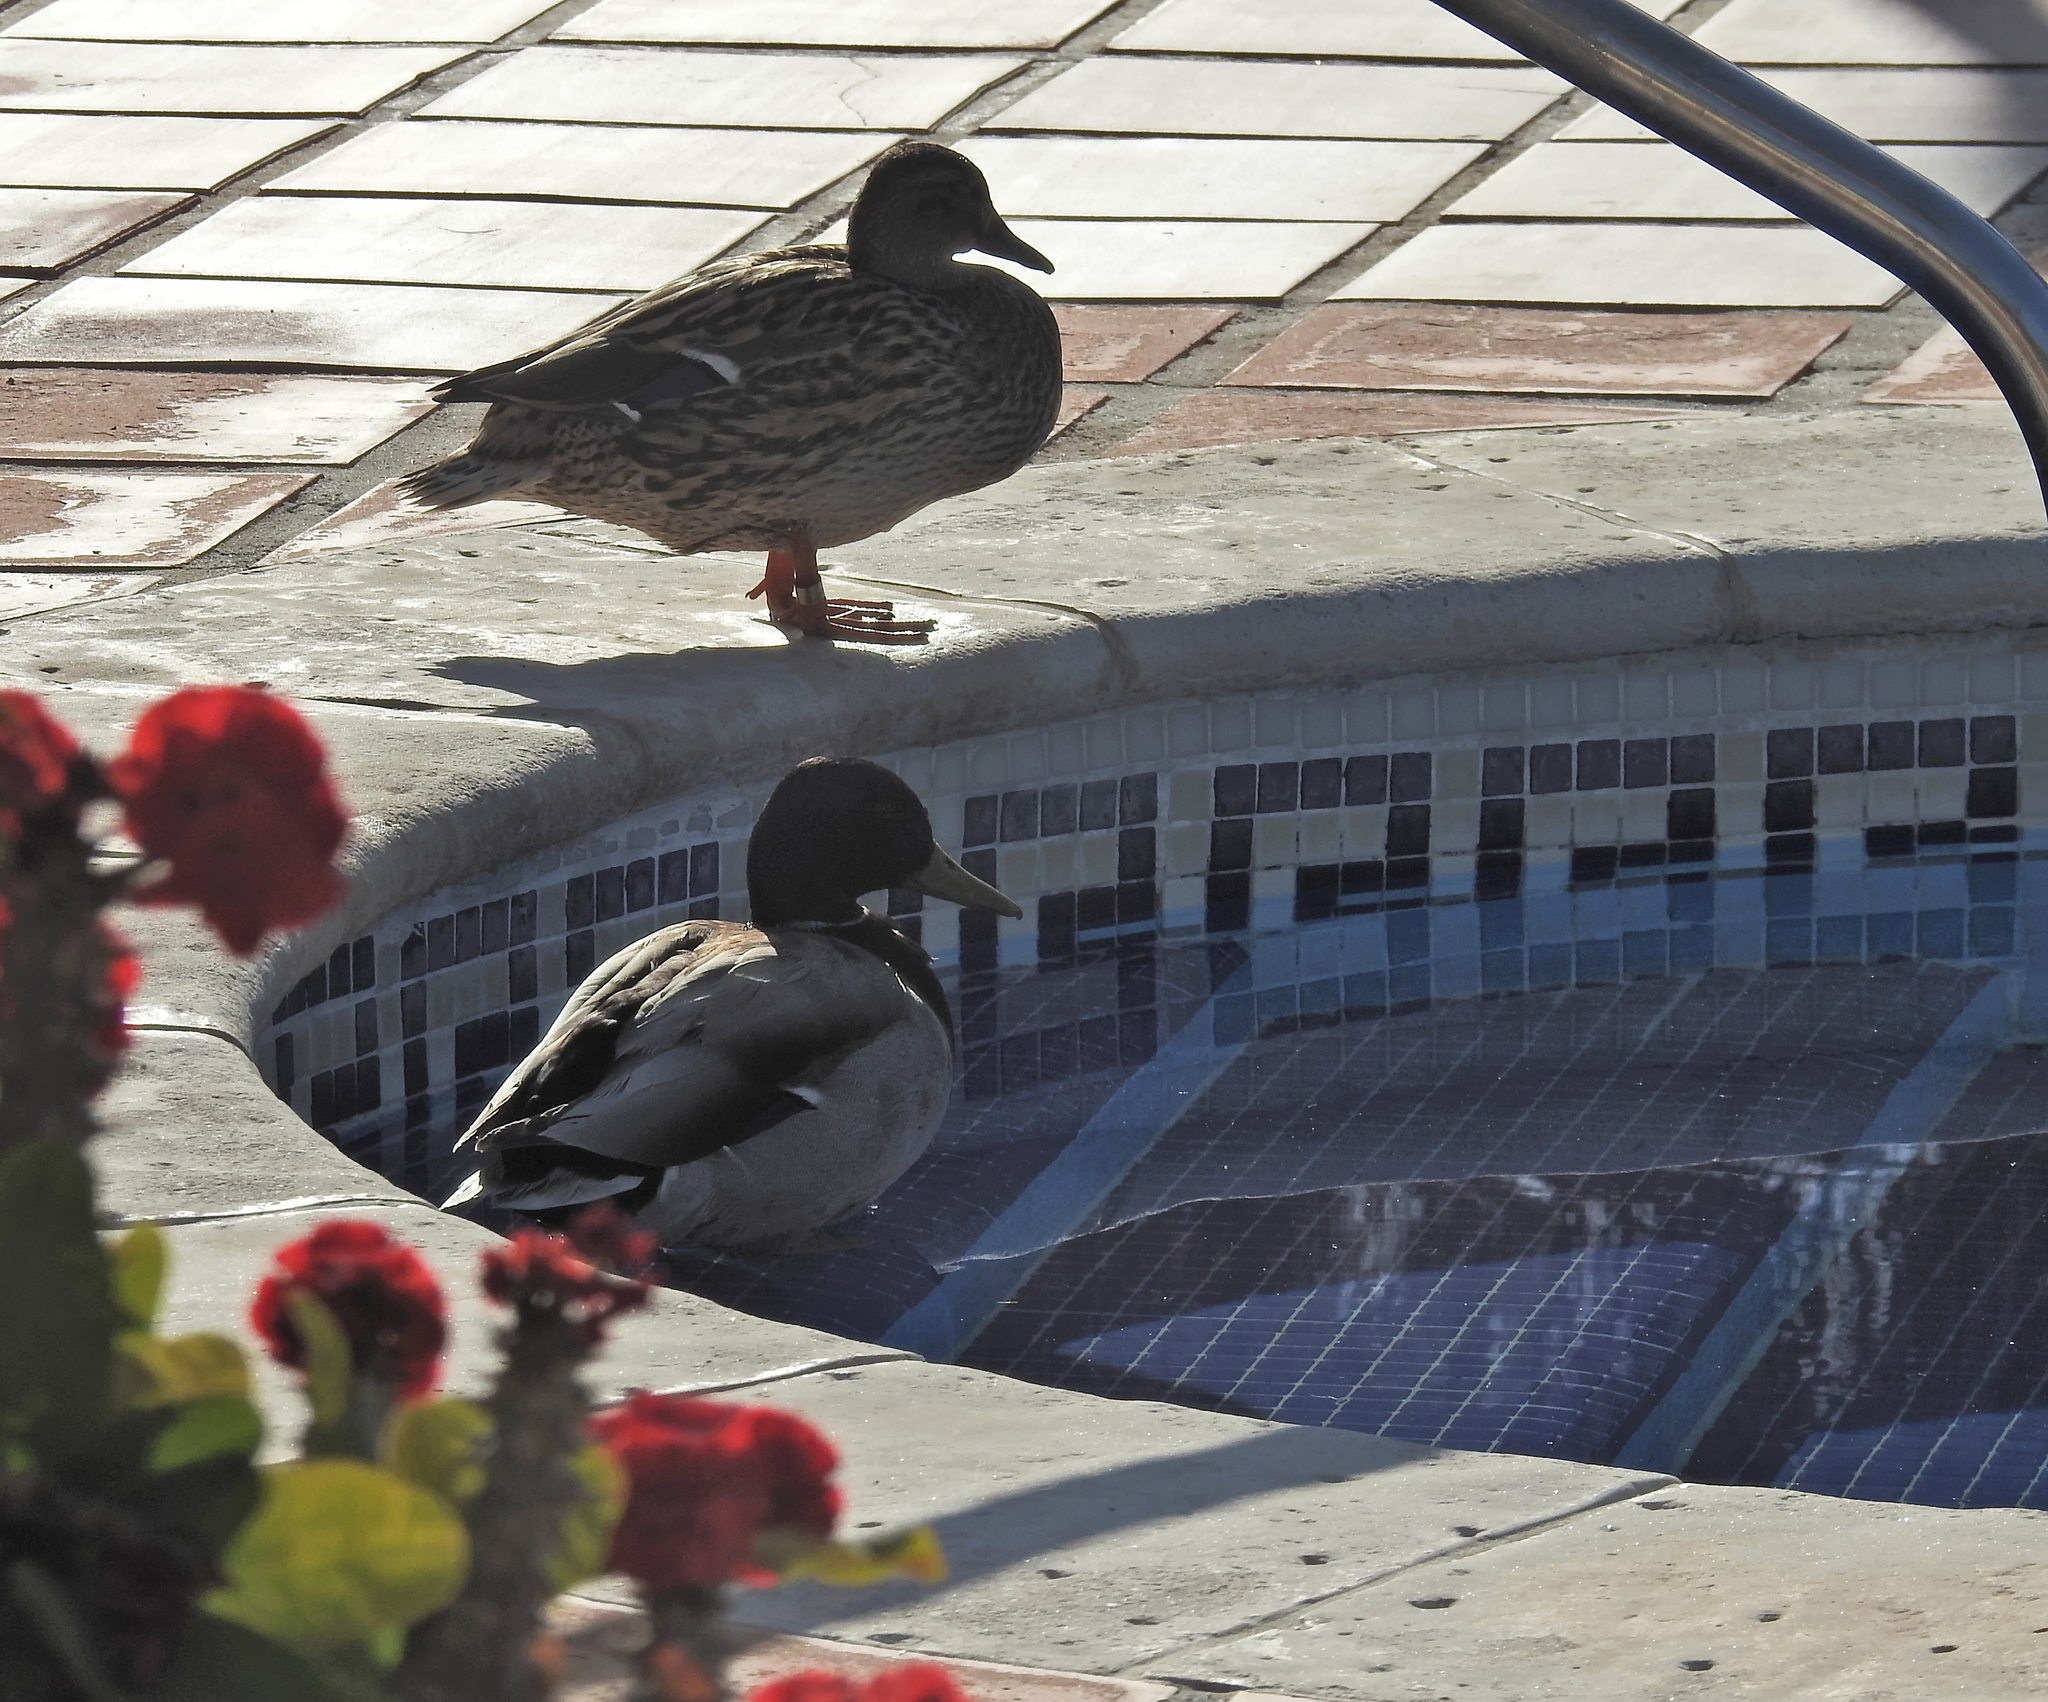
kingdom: Animalia
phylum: Chordata
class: Aves
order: Anseriformes
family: Anatidae
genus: Anas
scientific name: Anas platyrhynchos
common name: Mallard
